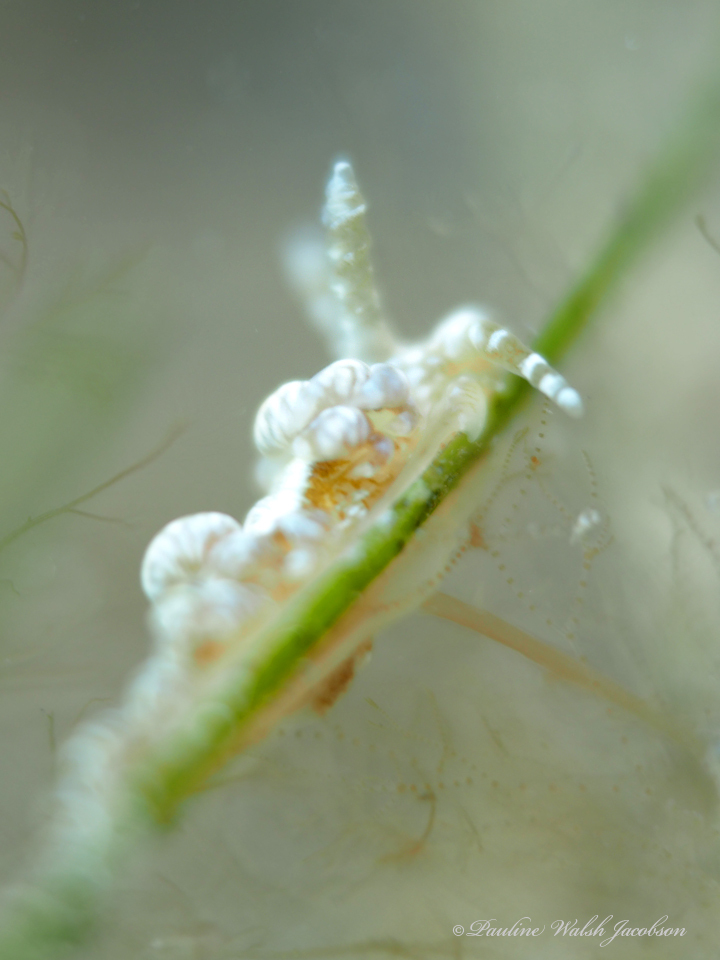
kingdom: Animalia
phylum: Mollusca
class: Gastropoda
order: Nudibranchia
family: Aeolidiidae
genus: Spurilla
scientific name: Spurilla sargassicola
